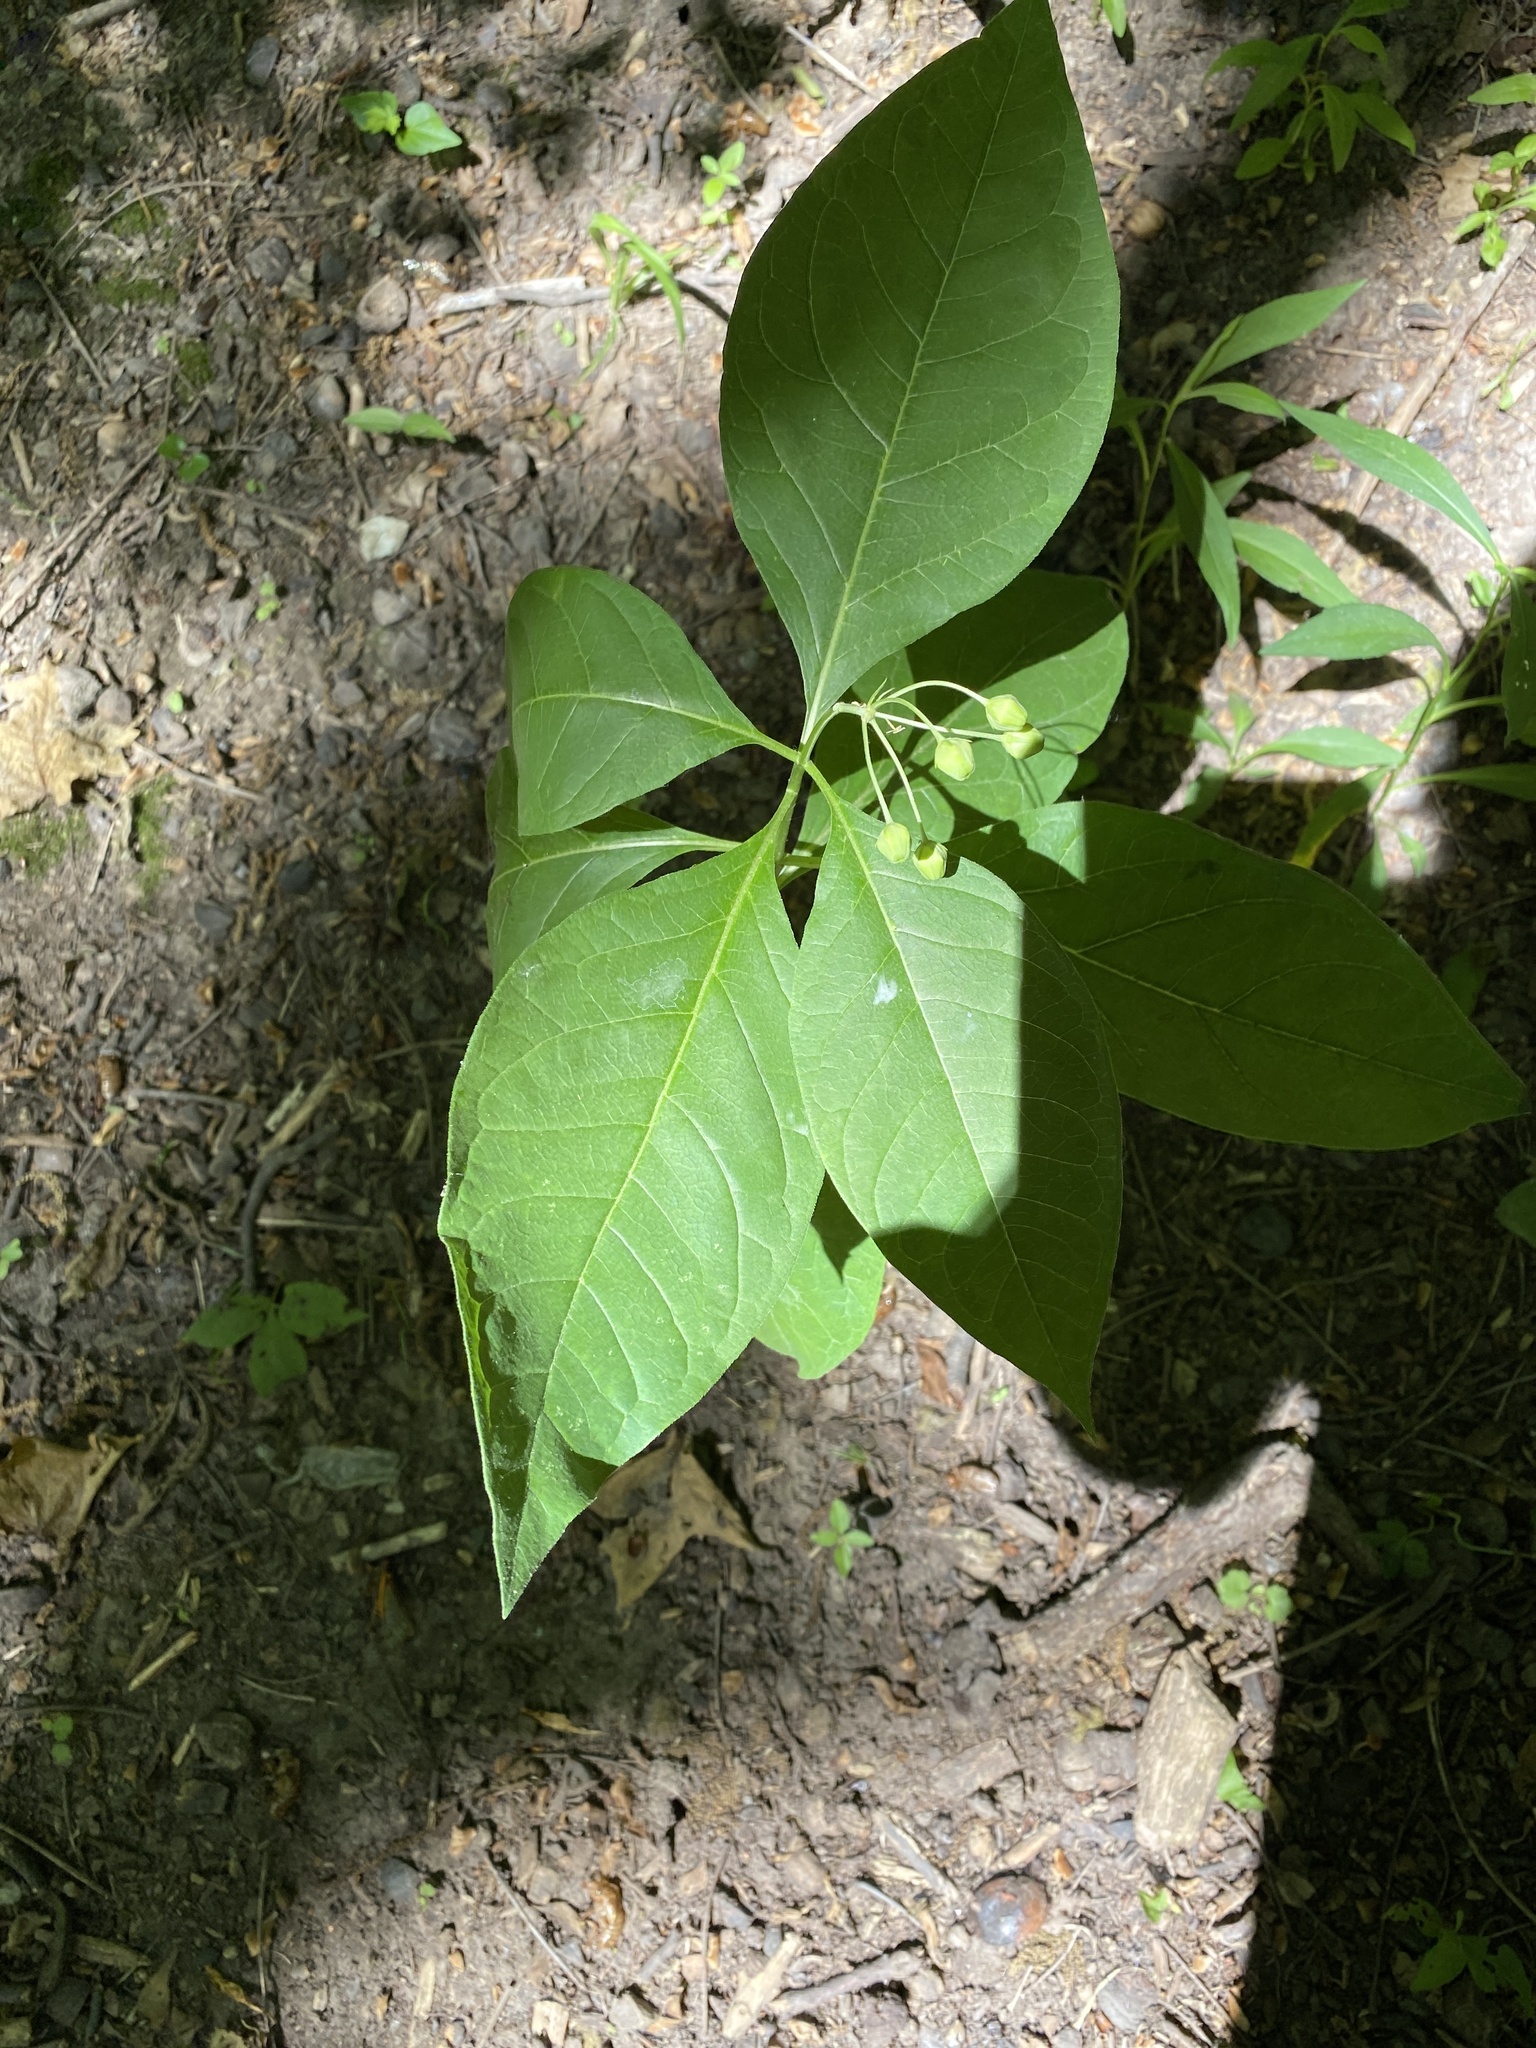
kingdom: Plantae
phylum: Tracheophyta
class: Magnoliopsida
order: Gentianales
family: Apocynaceae
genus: Asclepias
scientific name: Asclepias exaltata
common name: Poke milkweed
